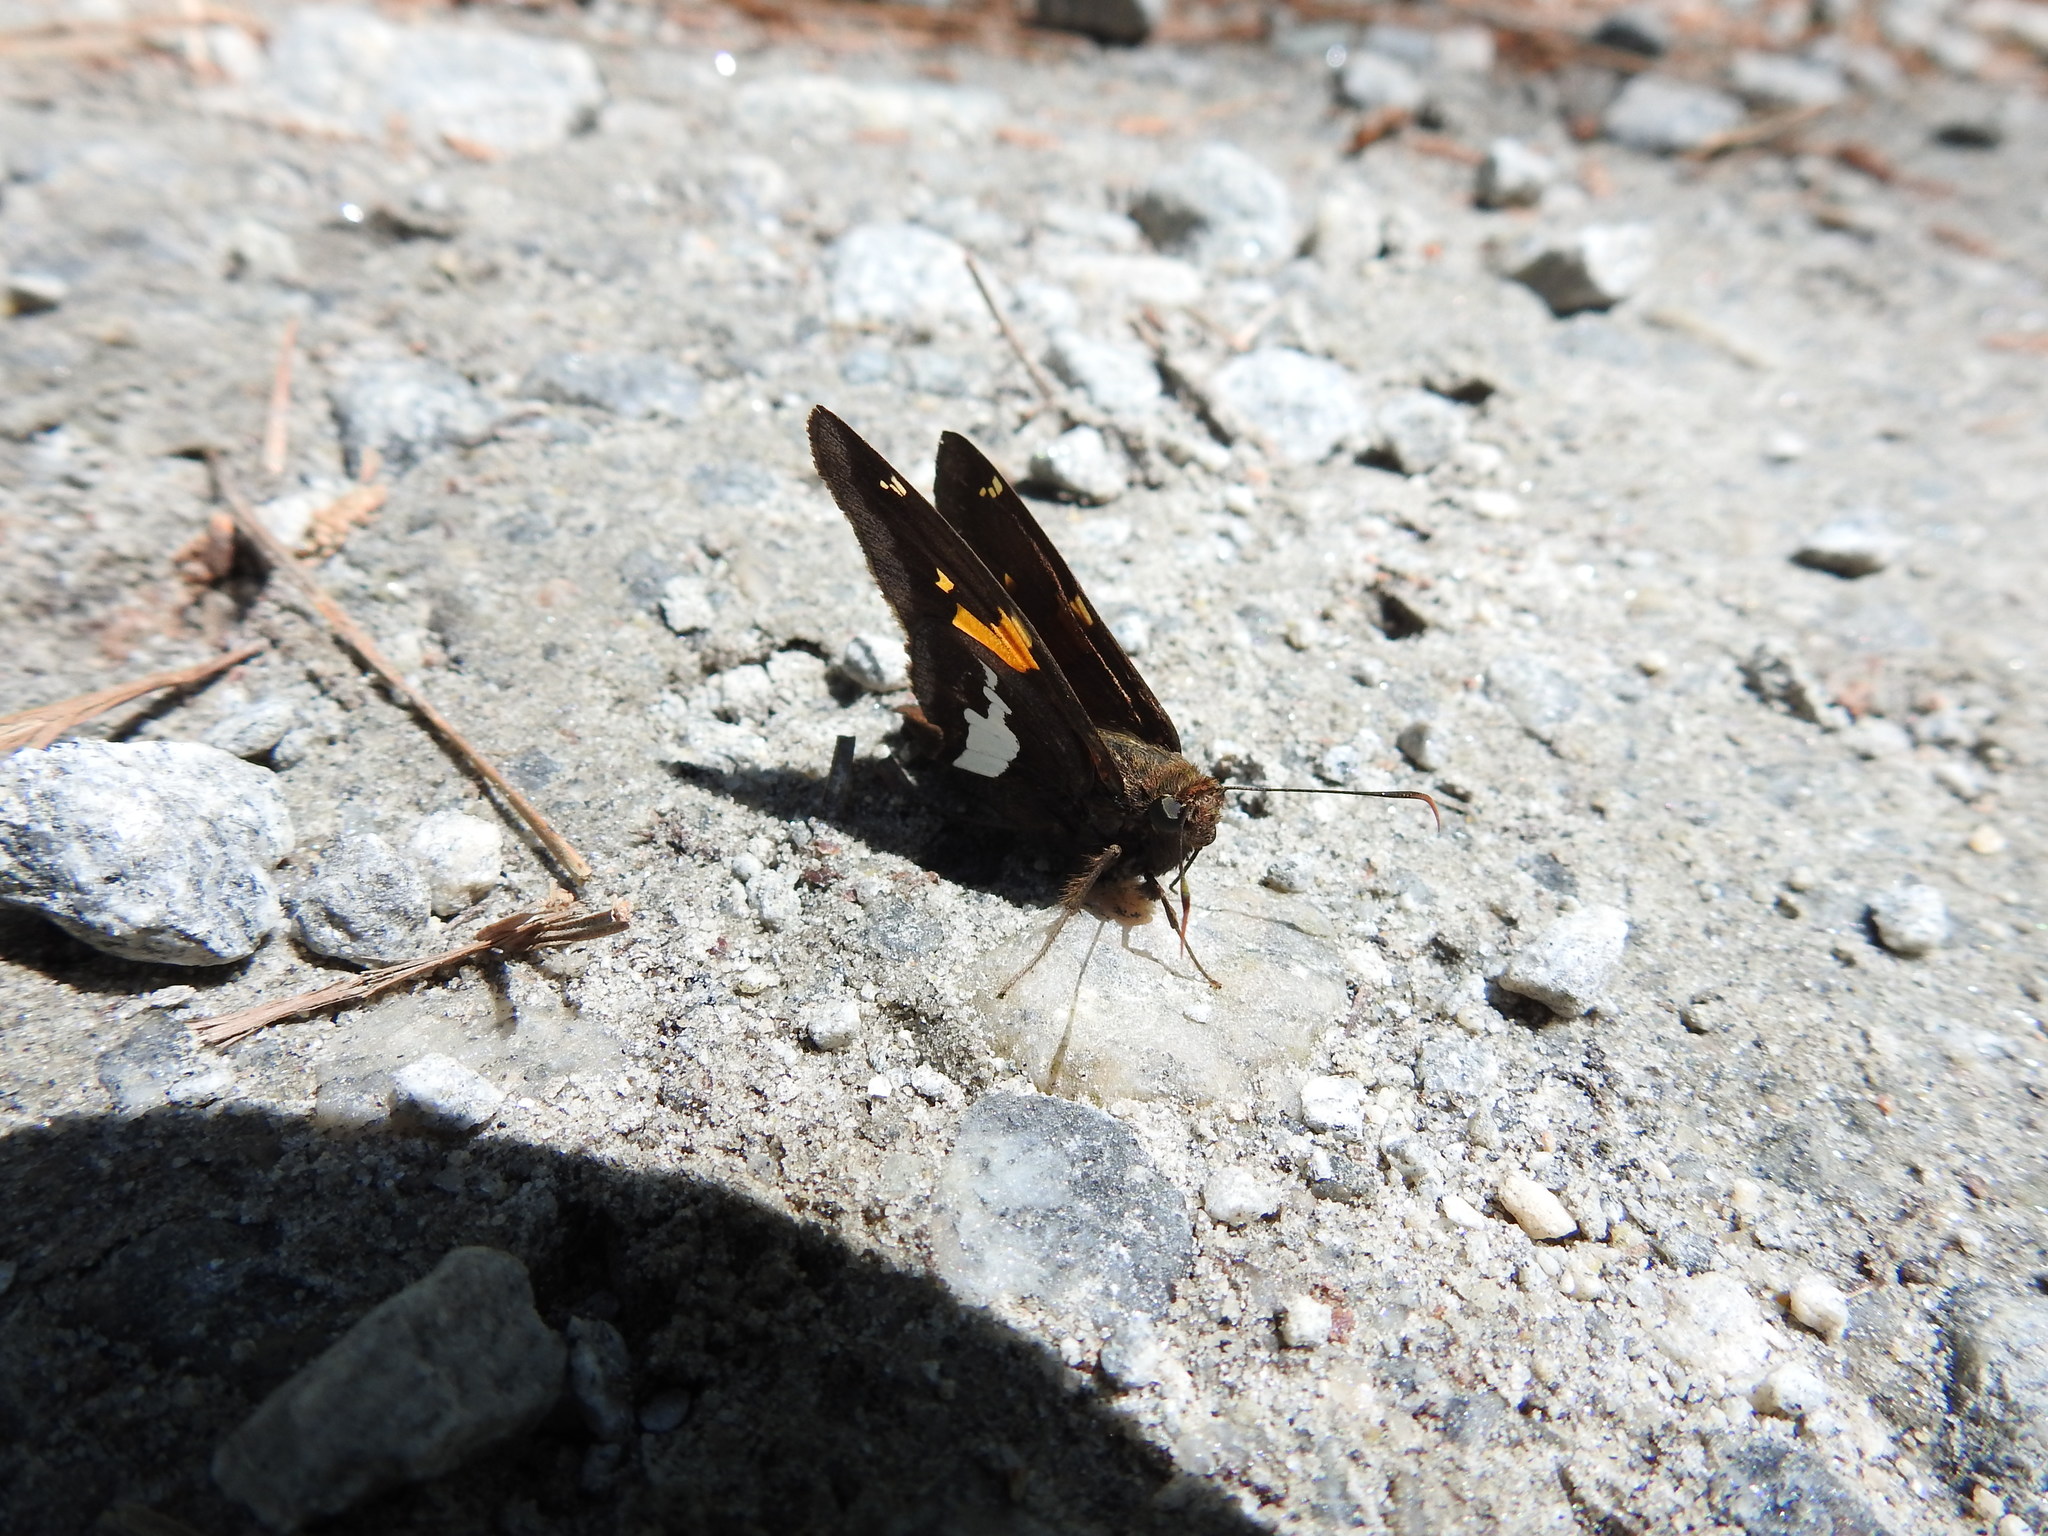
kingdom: Animalia
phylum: Arthropoda
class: Insecta
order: Lepidoptera
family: Hesperiidae
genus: Epargyreus
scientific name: Epargyreus clarus
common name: Silver-spotted skipper
